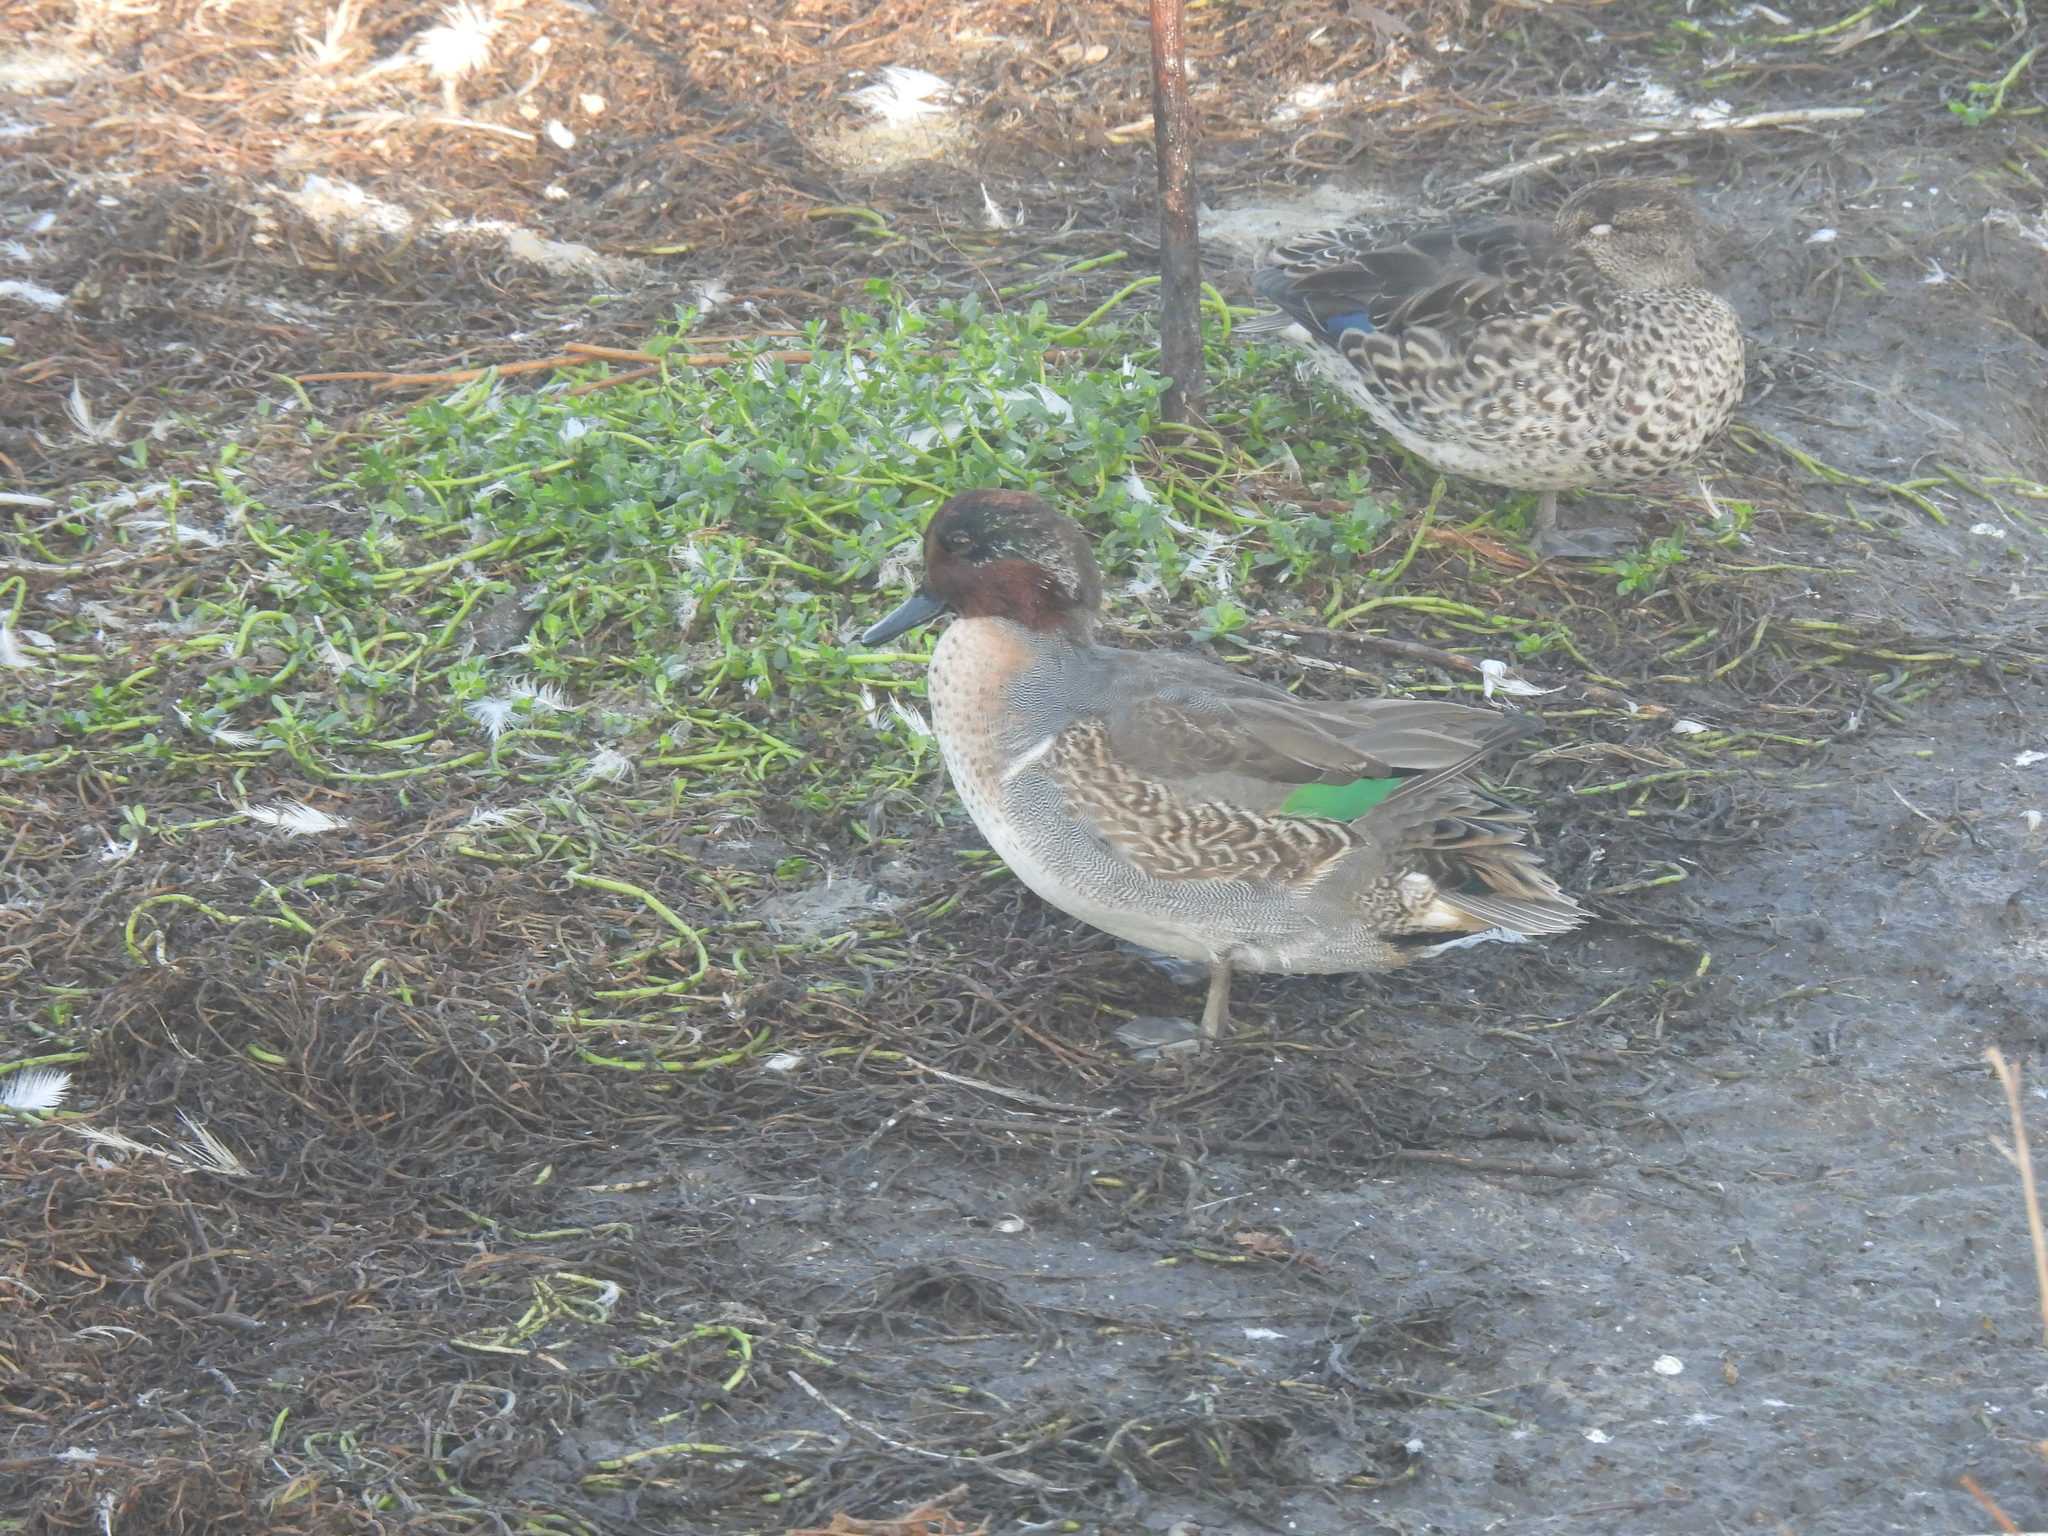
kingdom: Animalia
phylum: Chordata
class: Aves
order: Anseriformes
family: Anatidae
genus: Anas
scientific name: Anas crecca
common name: Eurasian teal
